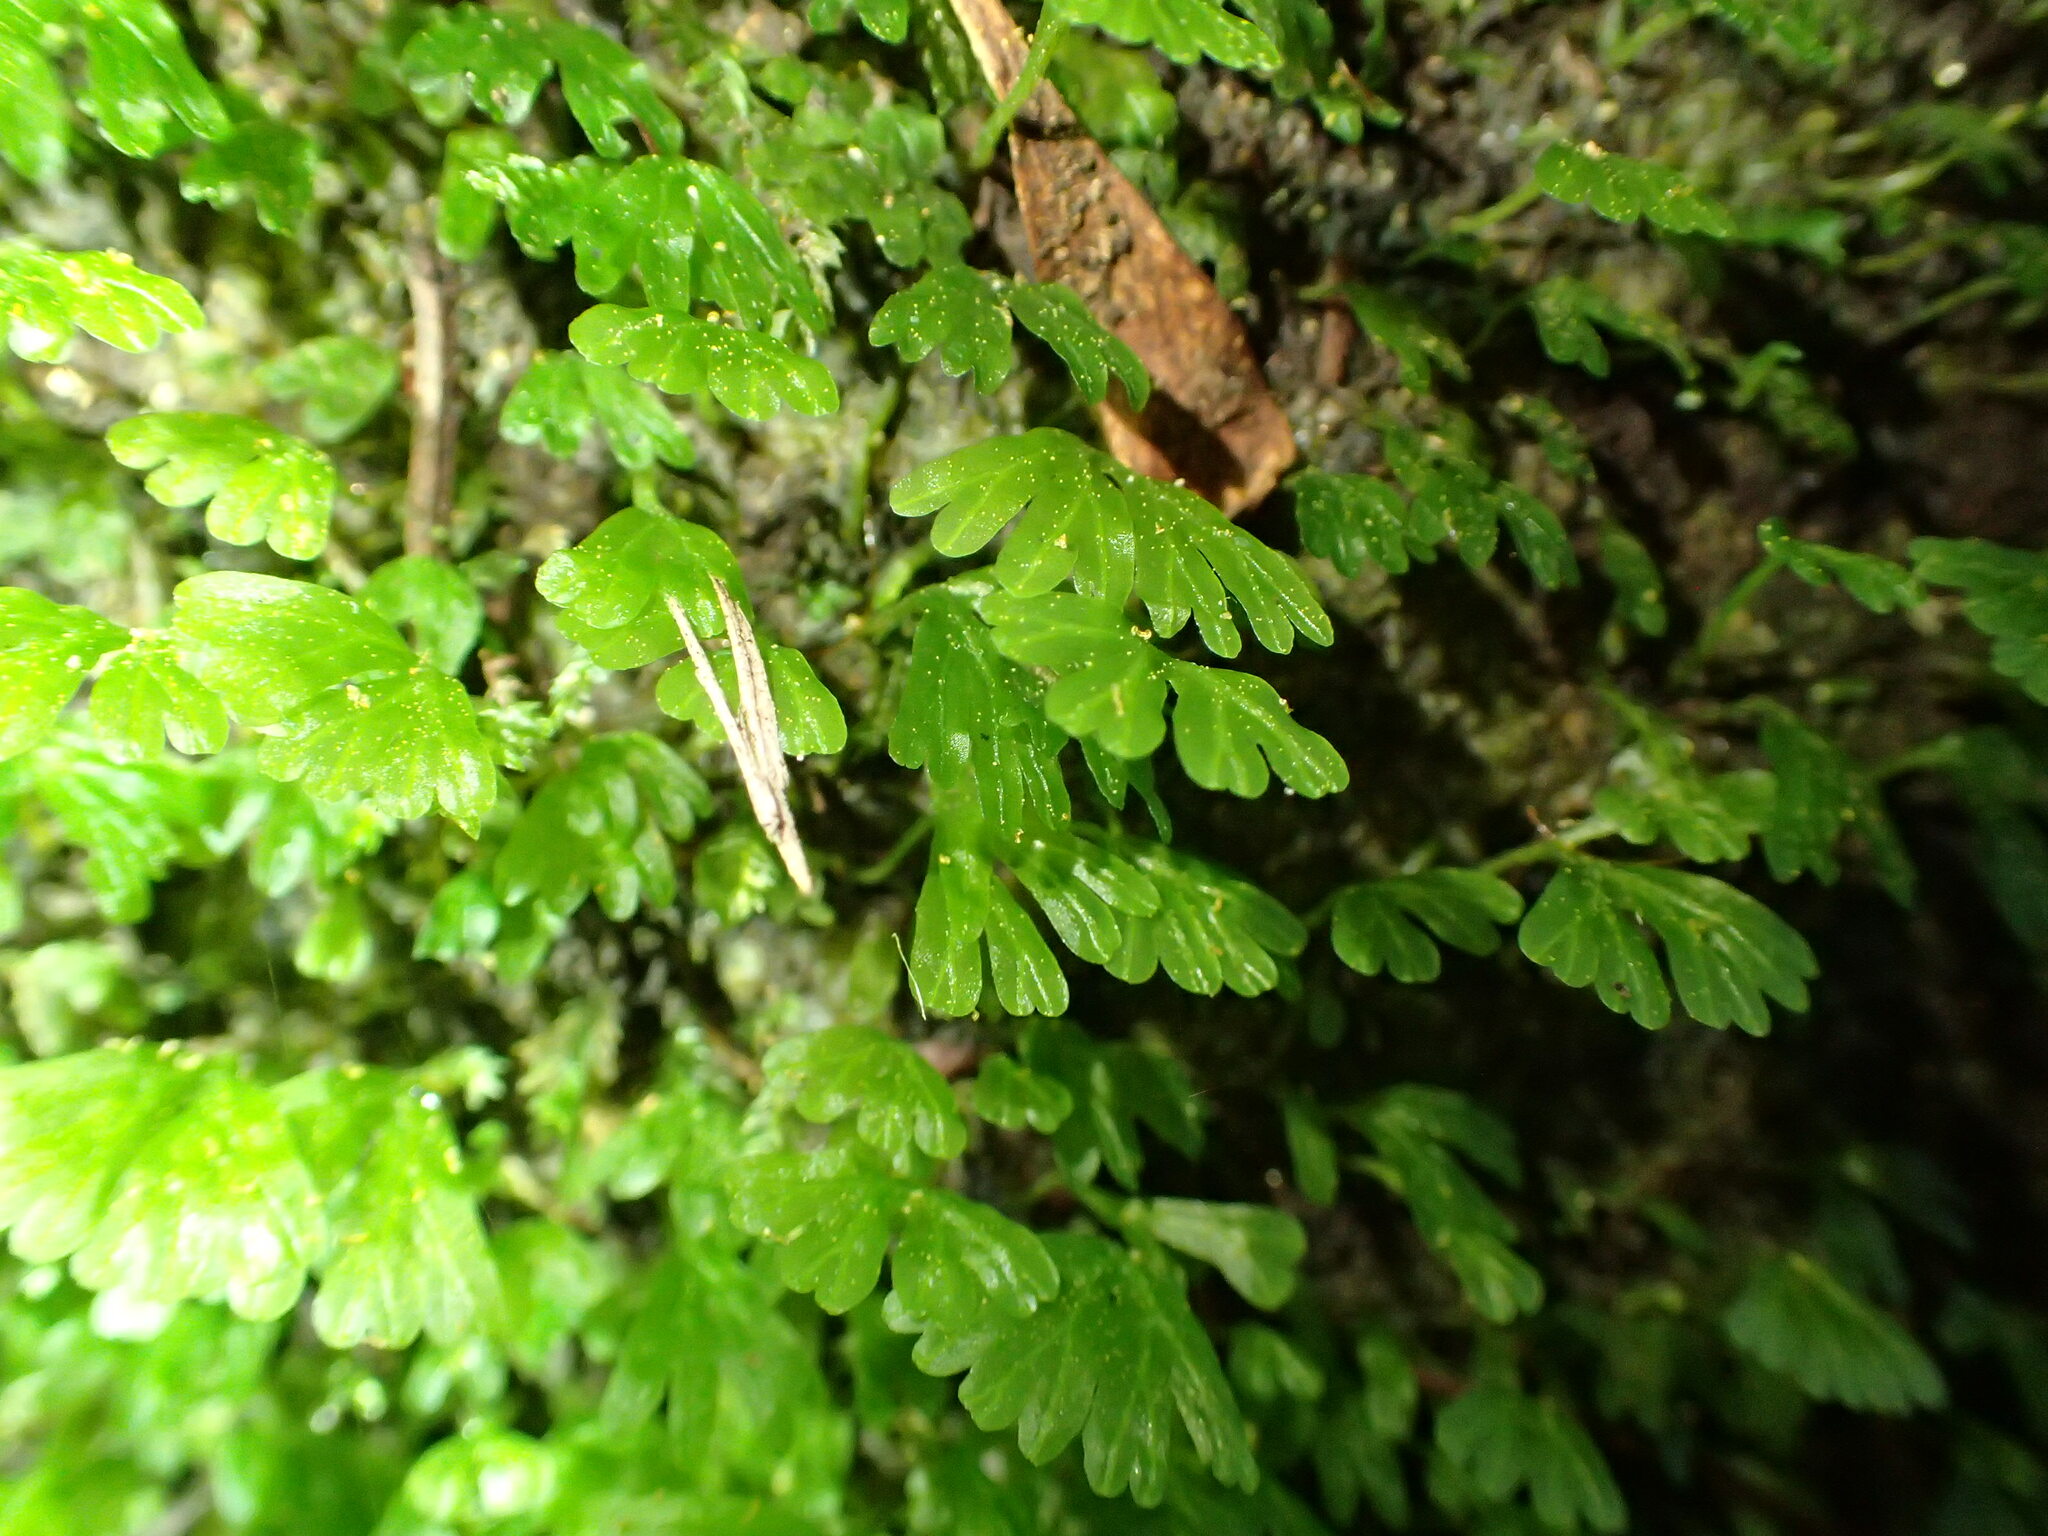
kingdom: Plantae
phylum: Marchantiophyta
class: Jungermanniopsida
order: Pallaviciniales
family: Hymenophytaceae
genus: Hymenophyton
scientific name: Hymenophyton flabellatum
